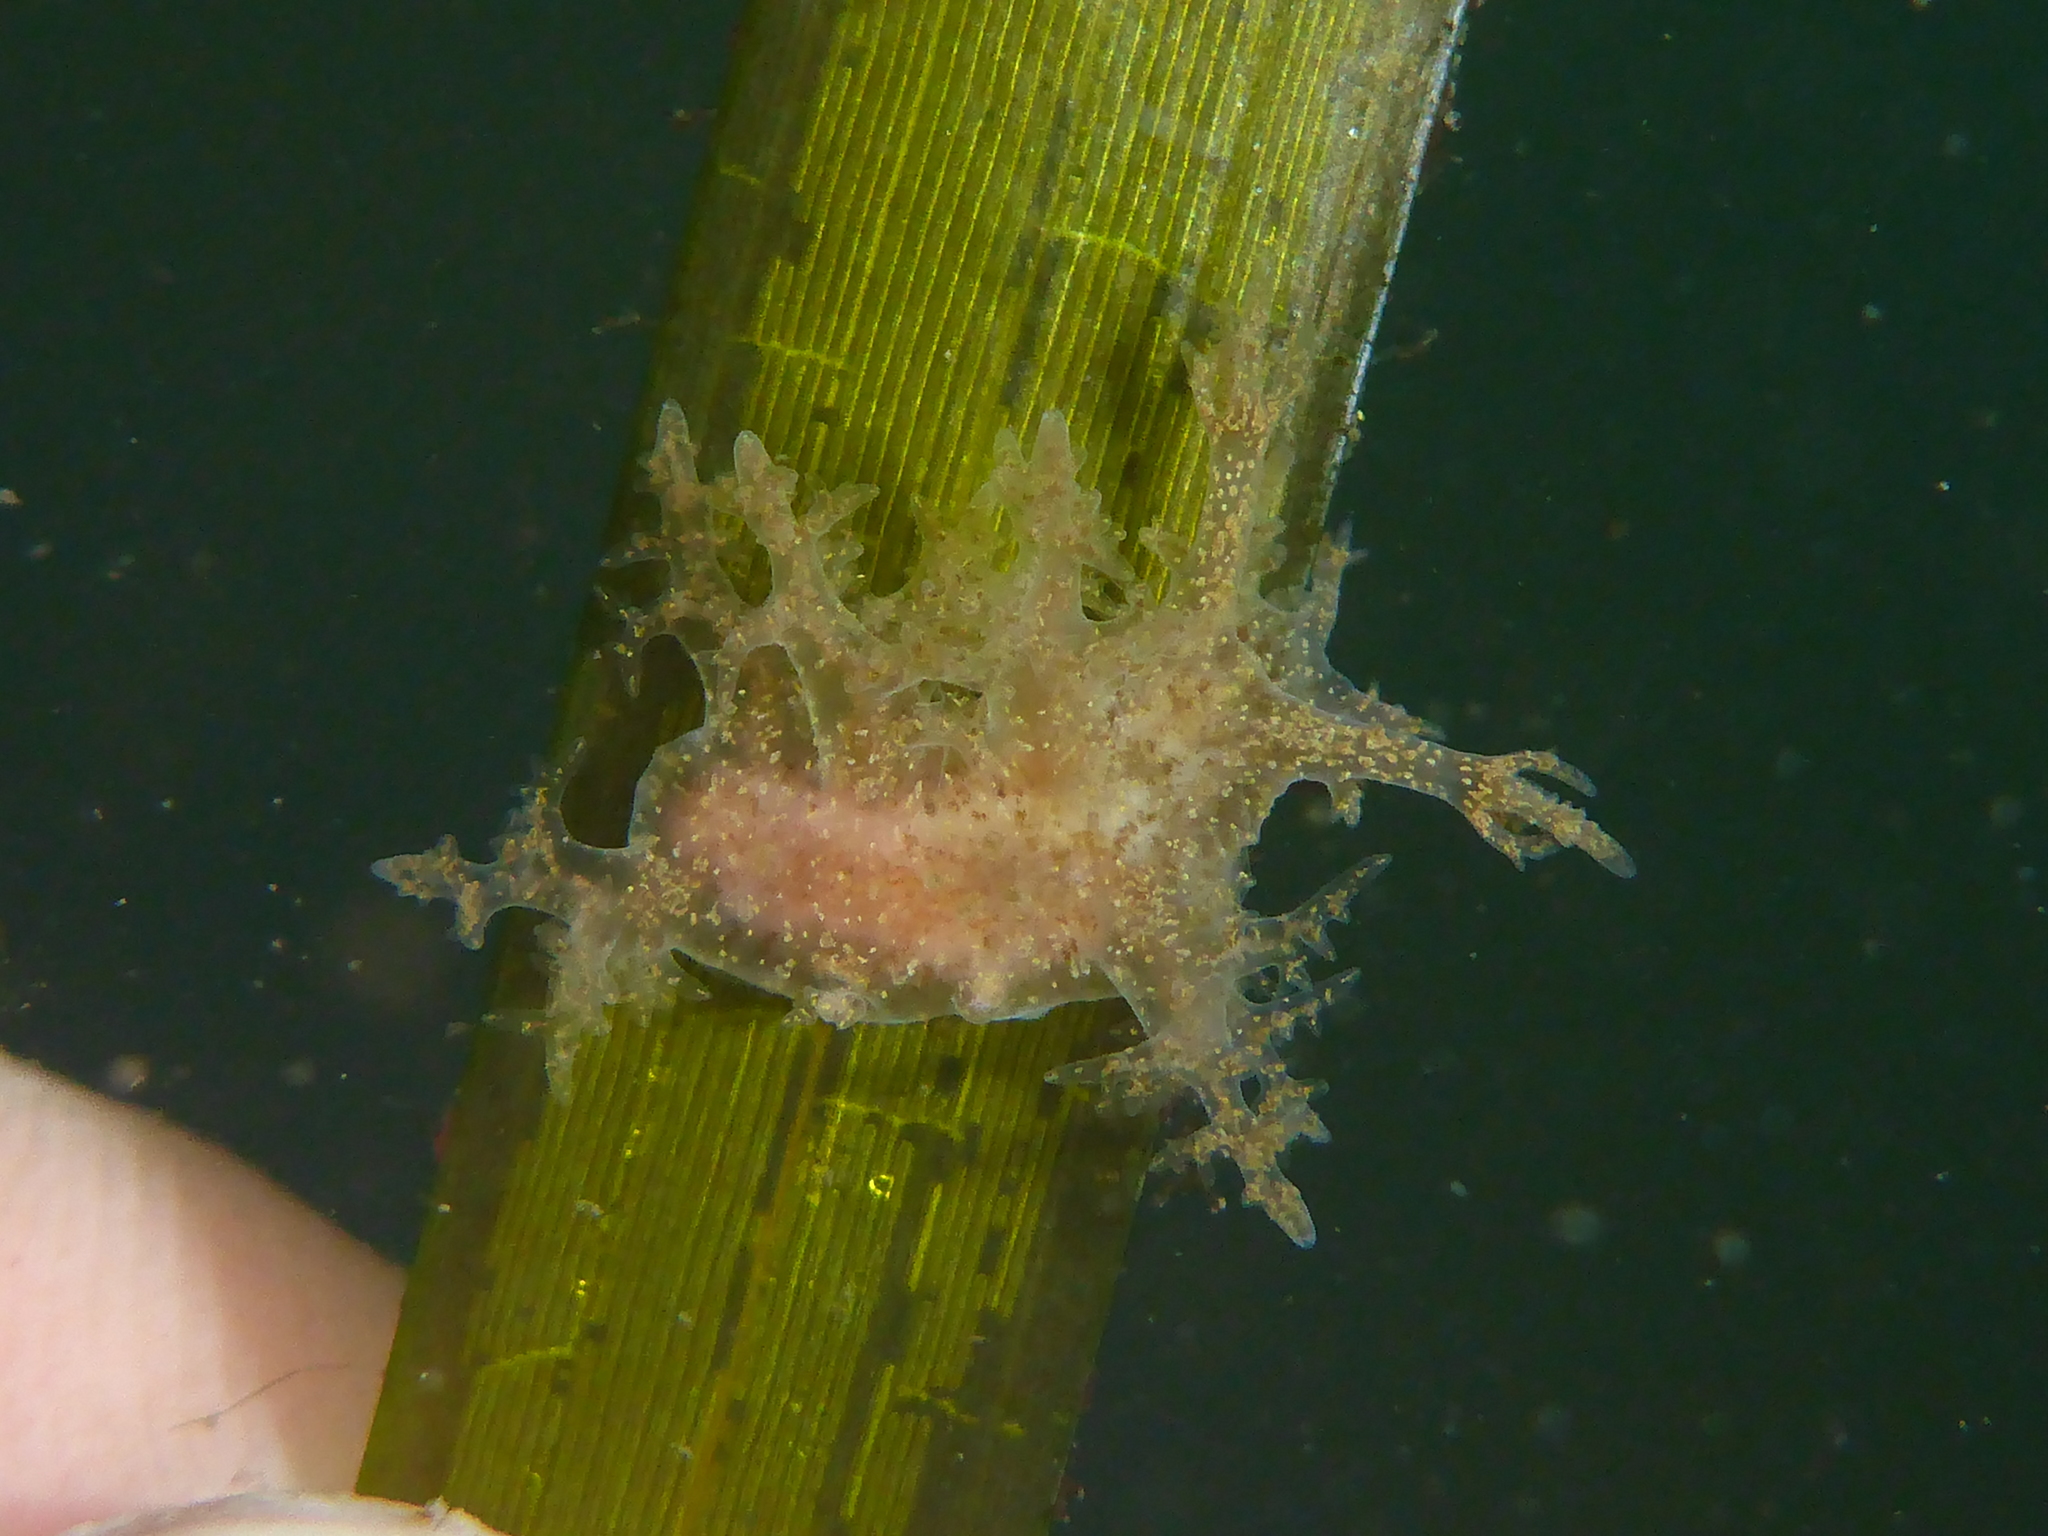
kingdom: Animalia
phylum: Mollusca
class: Gastropoda
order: Nudibranchia
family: Dendronotidae
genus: Dendronotus
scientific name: Dendronotus venustus
